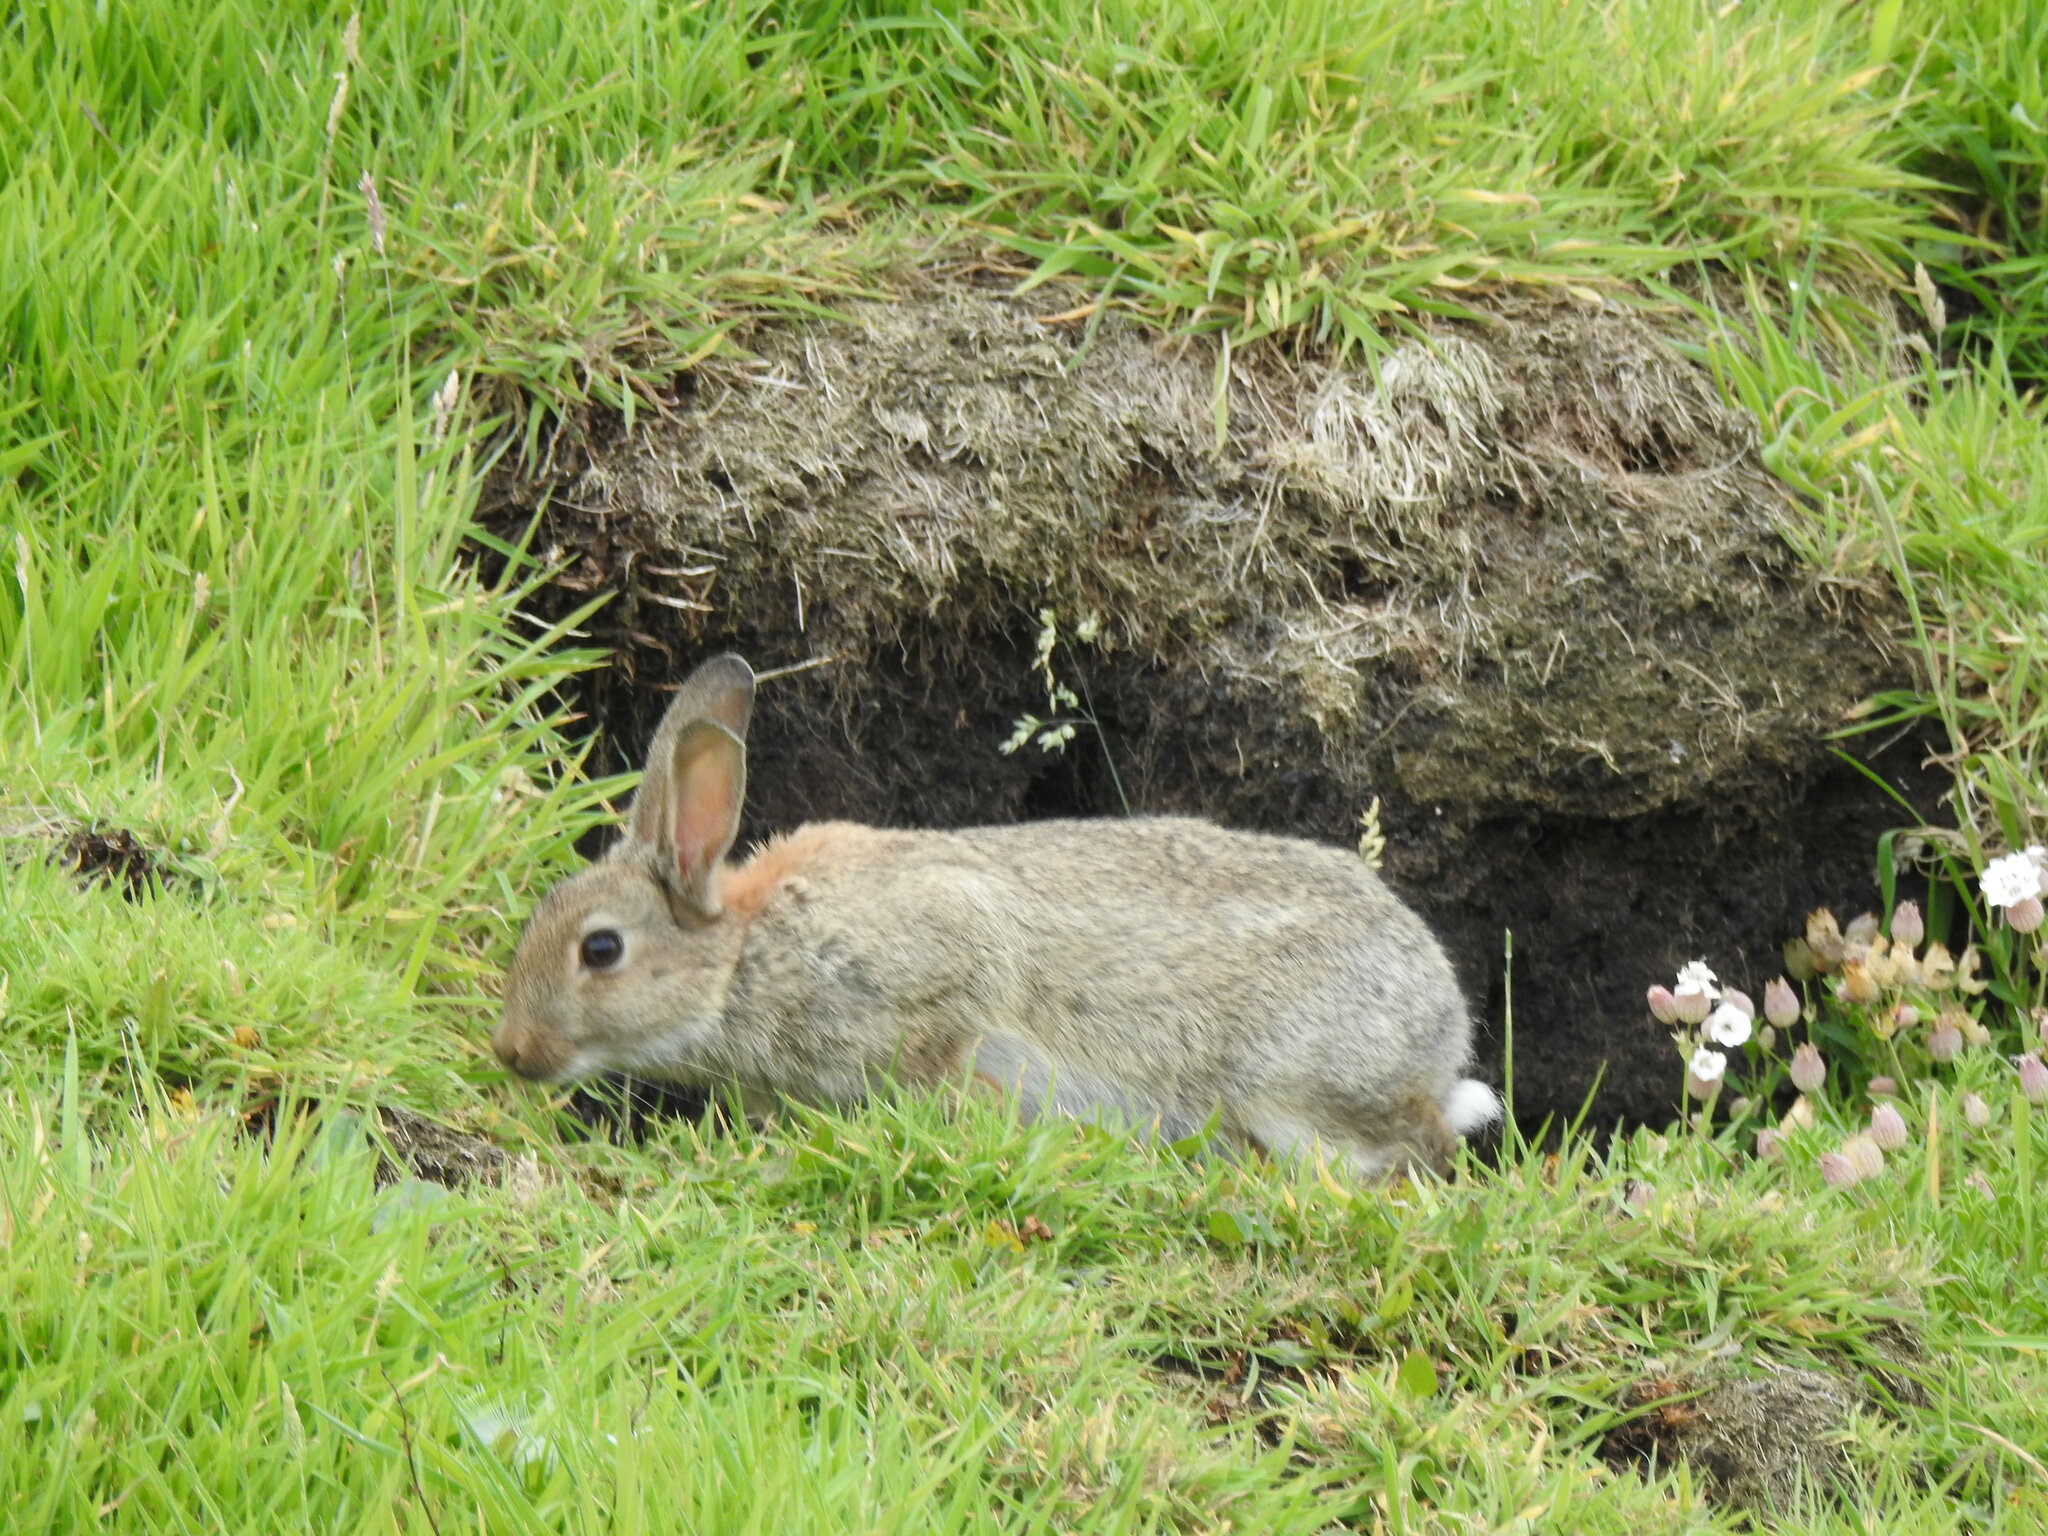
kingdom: Animalia
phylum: Chordata
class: Mammalia
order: Lagomorpha
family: Leporidae
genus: Oryctolagus
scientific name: Oryctolagus cuniculus
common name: European rabbit
